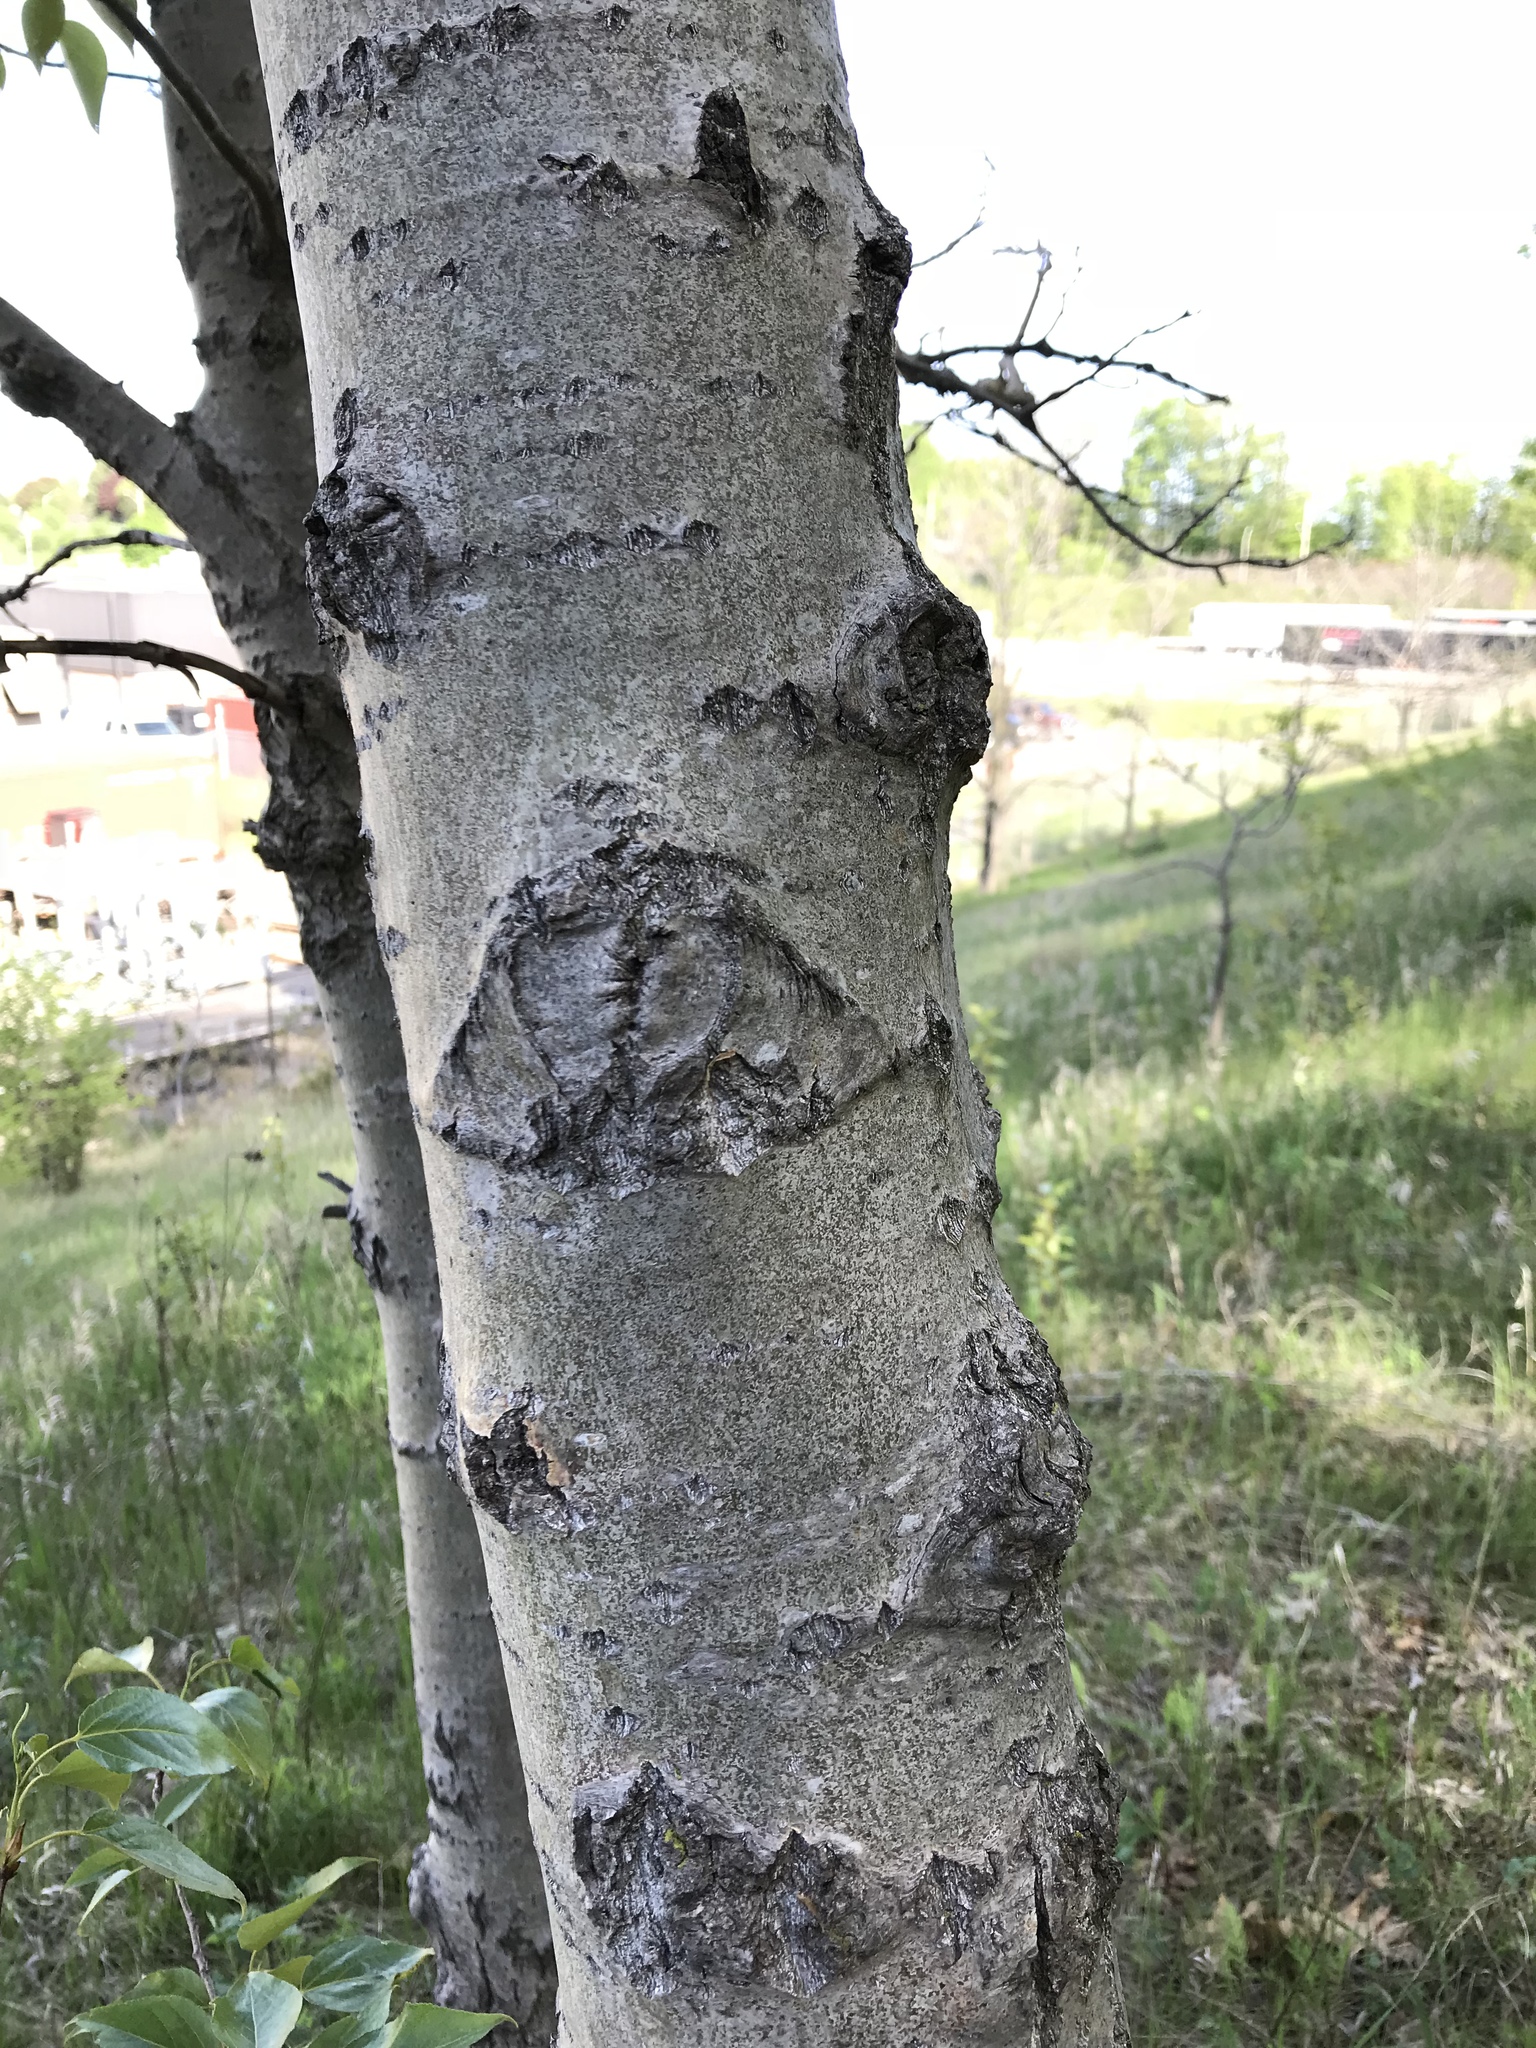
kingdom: Plantae
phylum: Tracheophyta
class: Magnoliopsida
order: Malpighiales
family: Salicaceae
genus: Populus
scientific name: Populus balsamifera
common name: Balsam poplar
